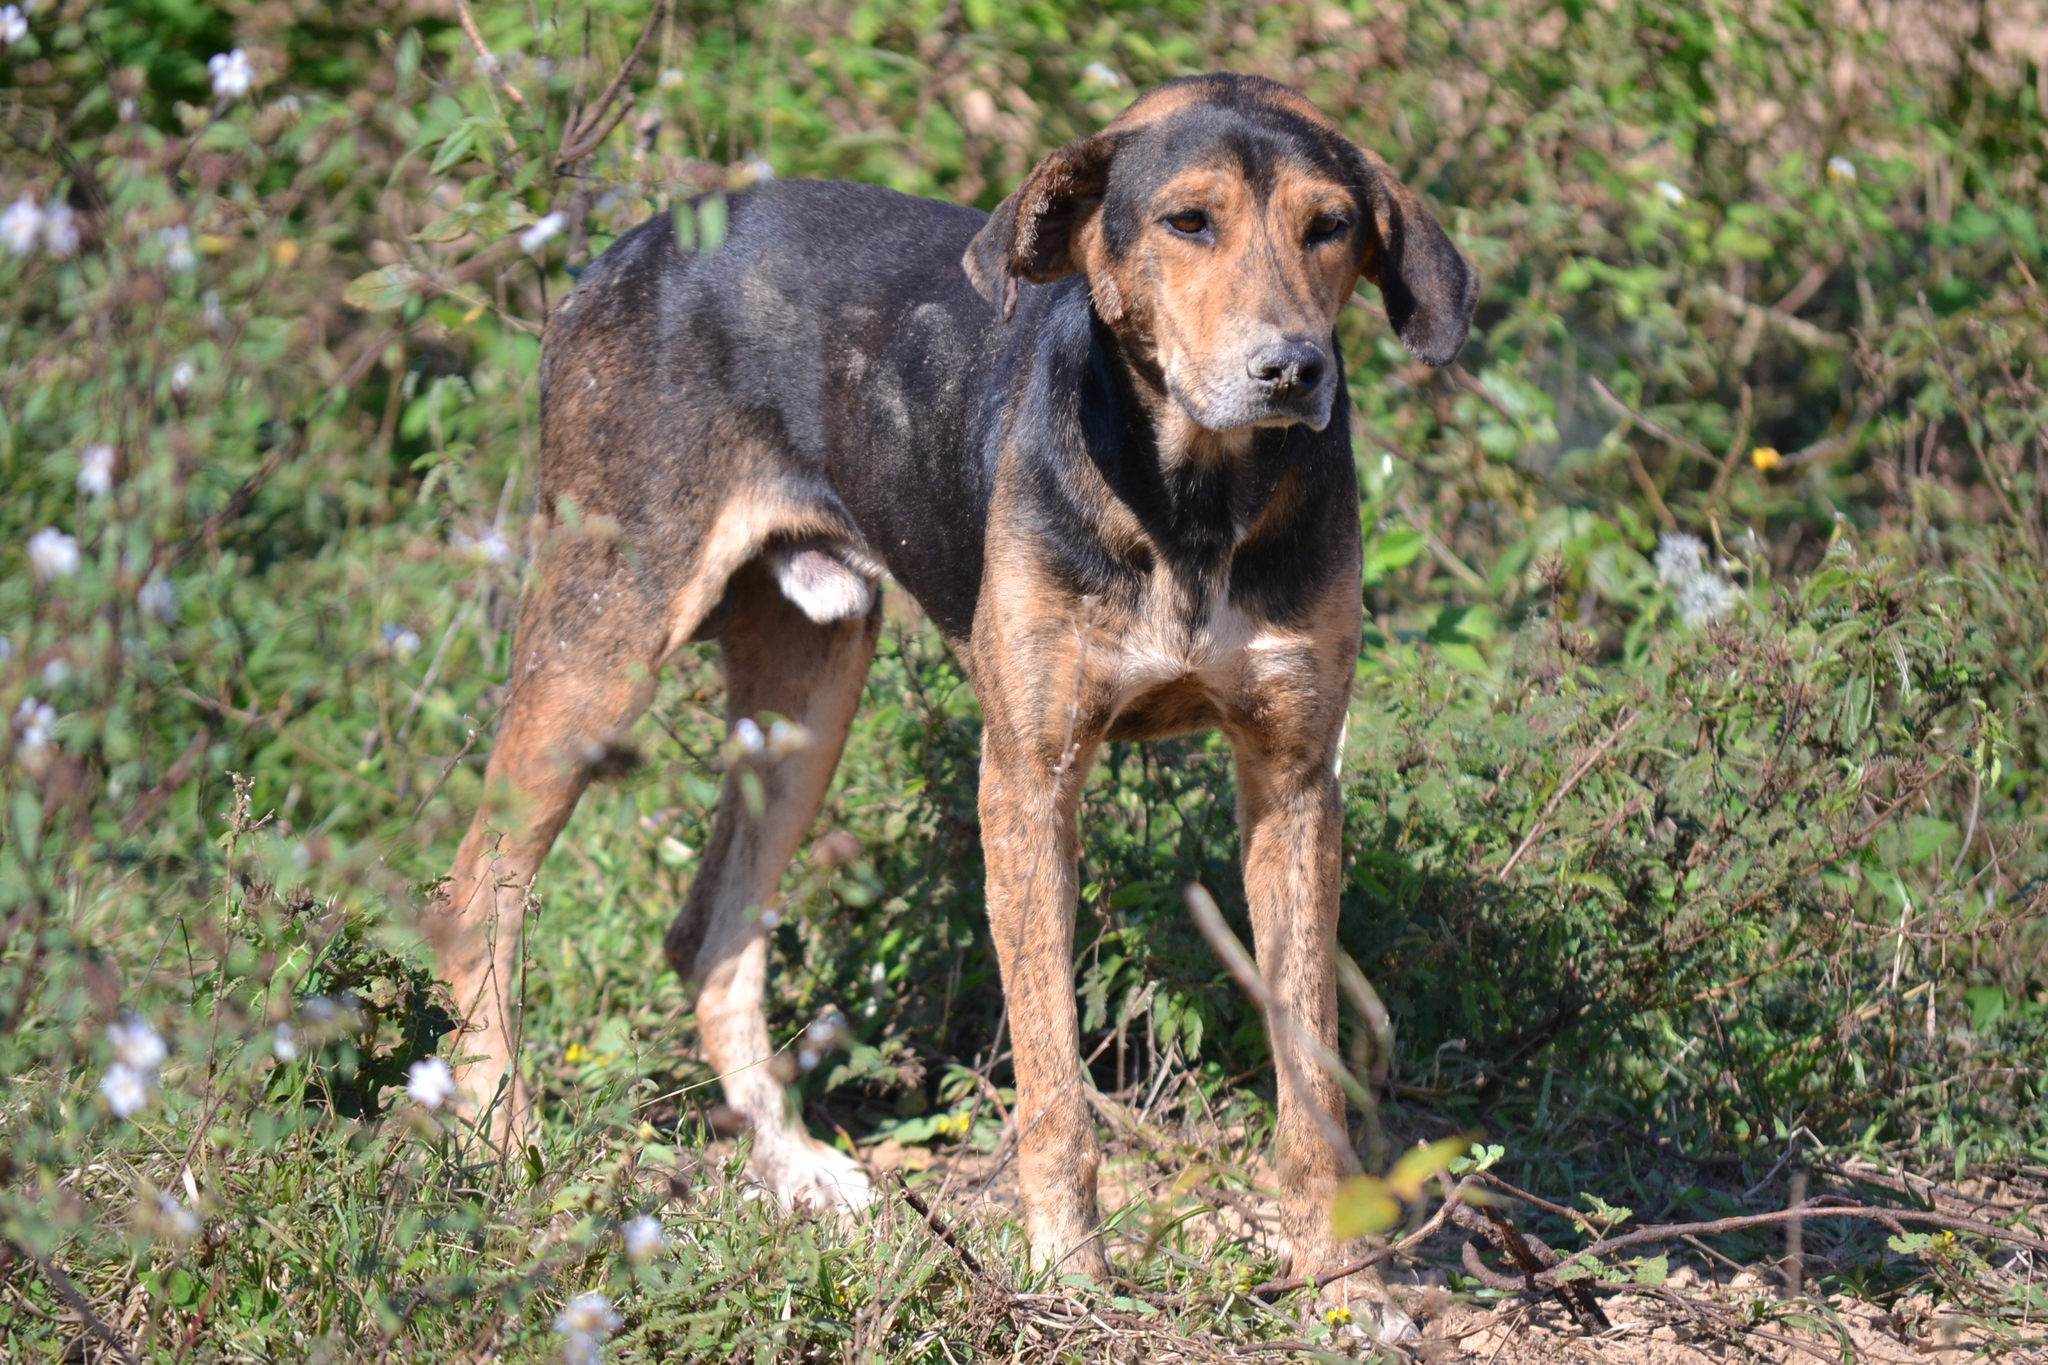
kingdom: Animalia
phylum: Chordata
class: Mammalia
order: Carnivora
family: Canidae
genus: Canis
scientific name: Canis lupus
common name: Gray wolf
